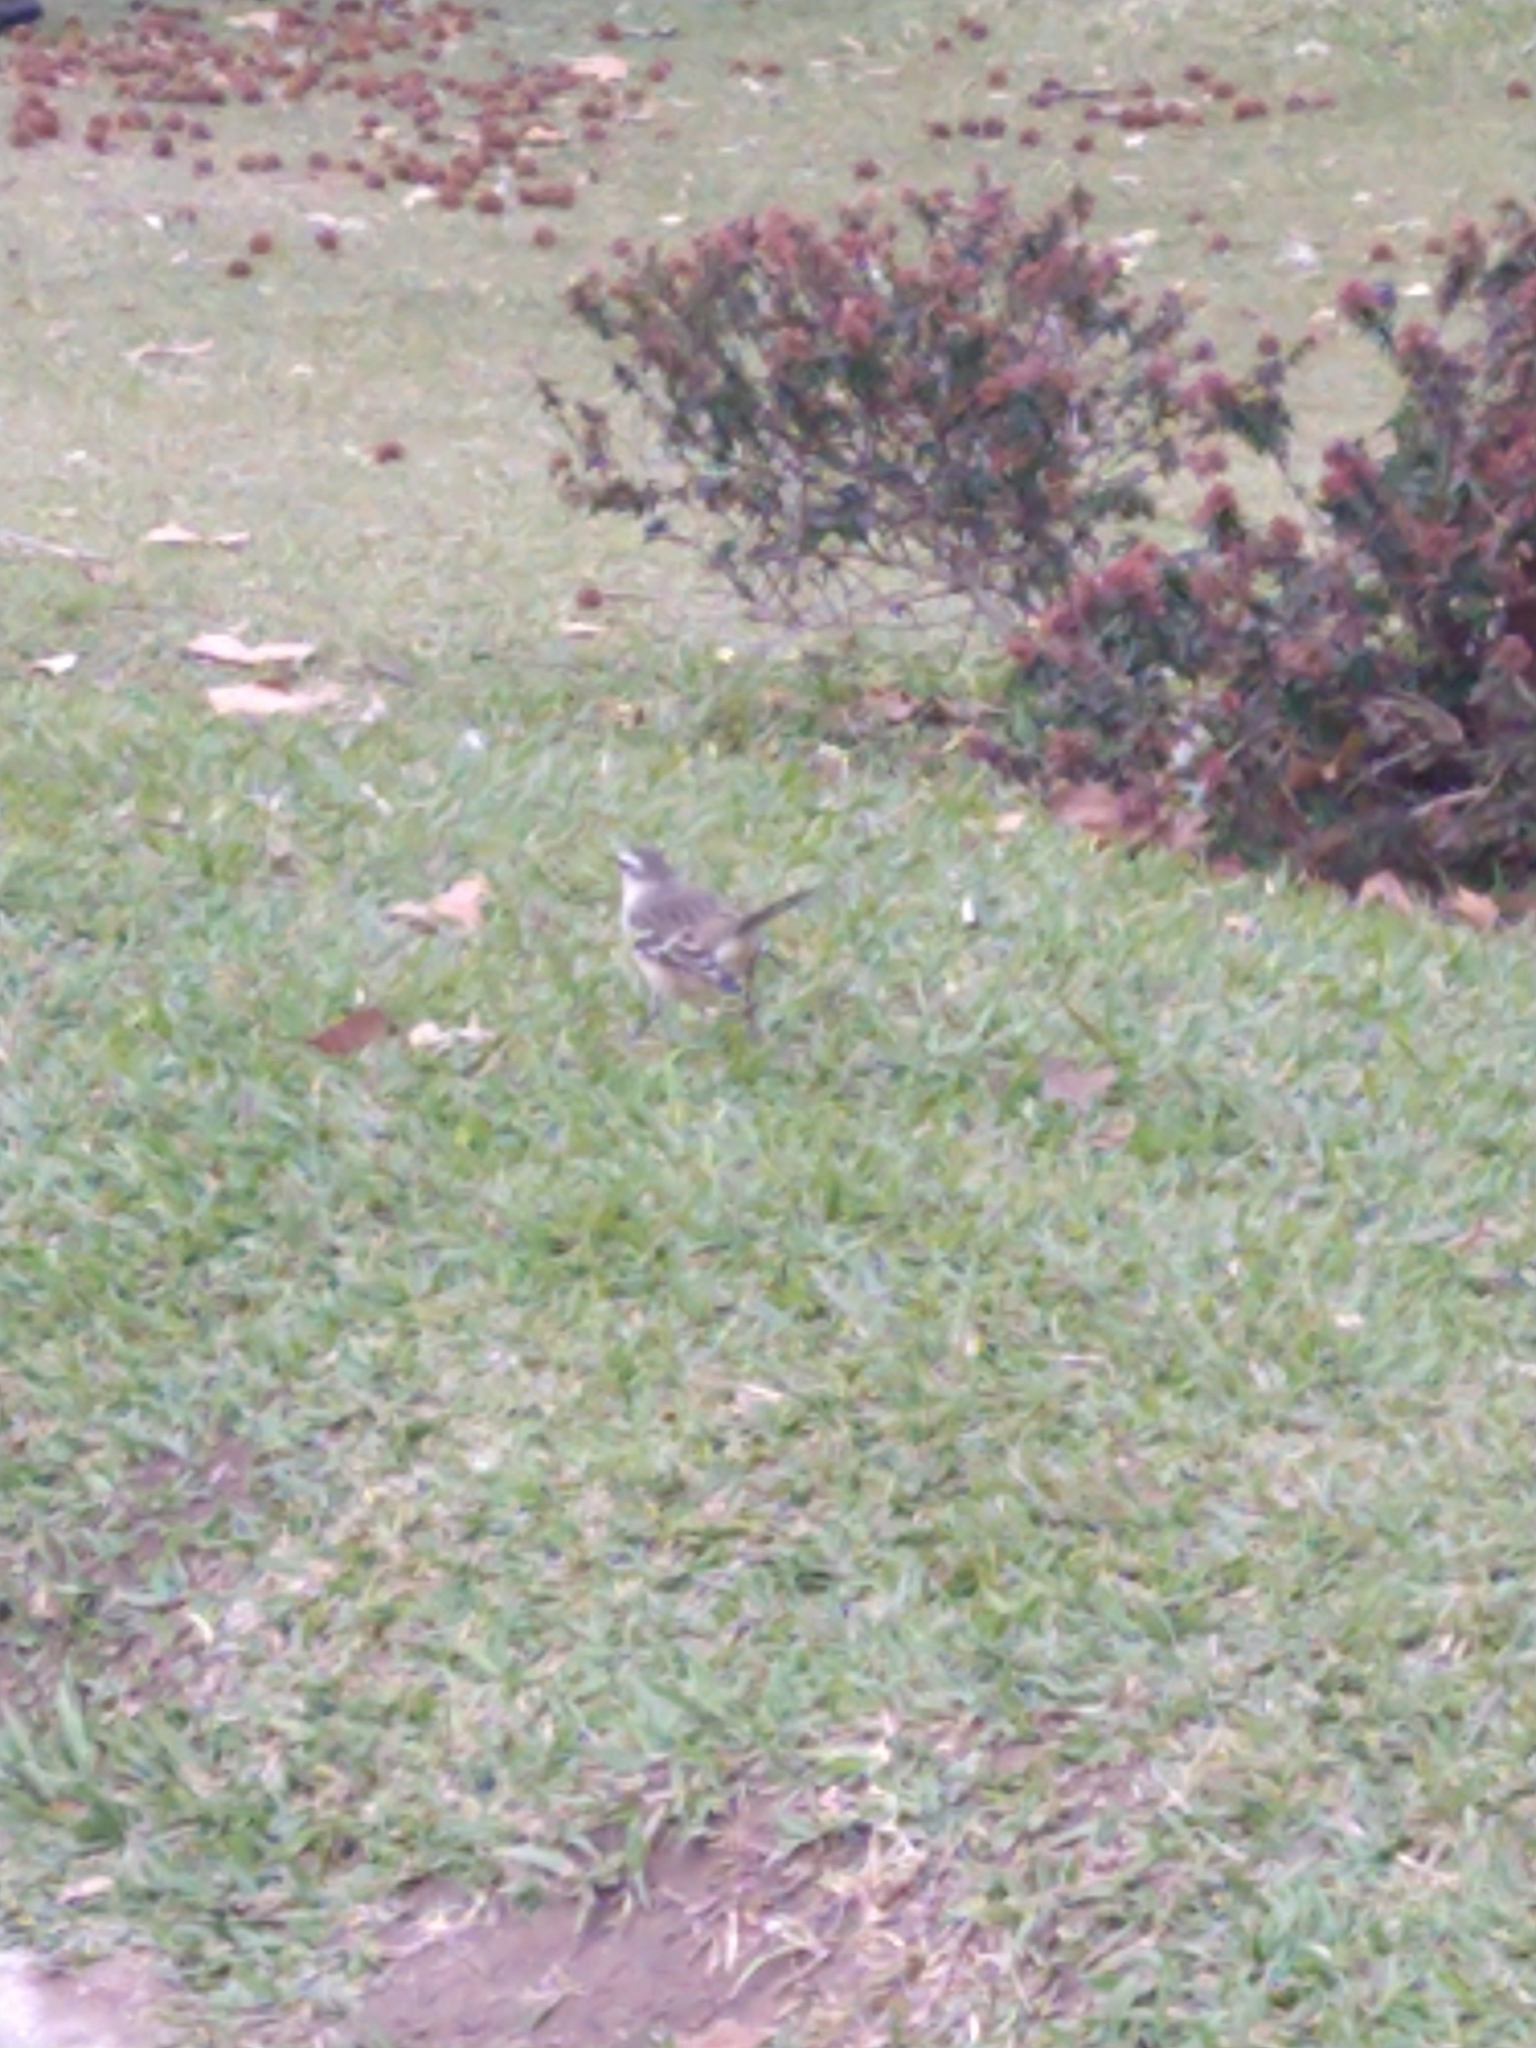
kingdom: Animalia
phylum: Chordata
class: Aves
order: Passeriformes
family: Mimidae
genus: Mimus
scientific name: Mimus saturninus
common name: Chalk-browed mockingbird
